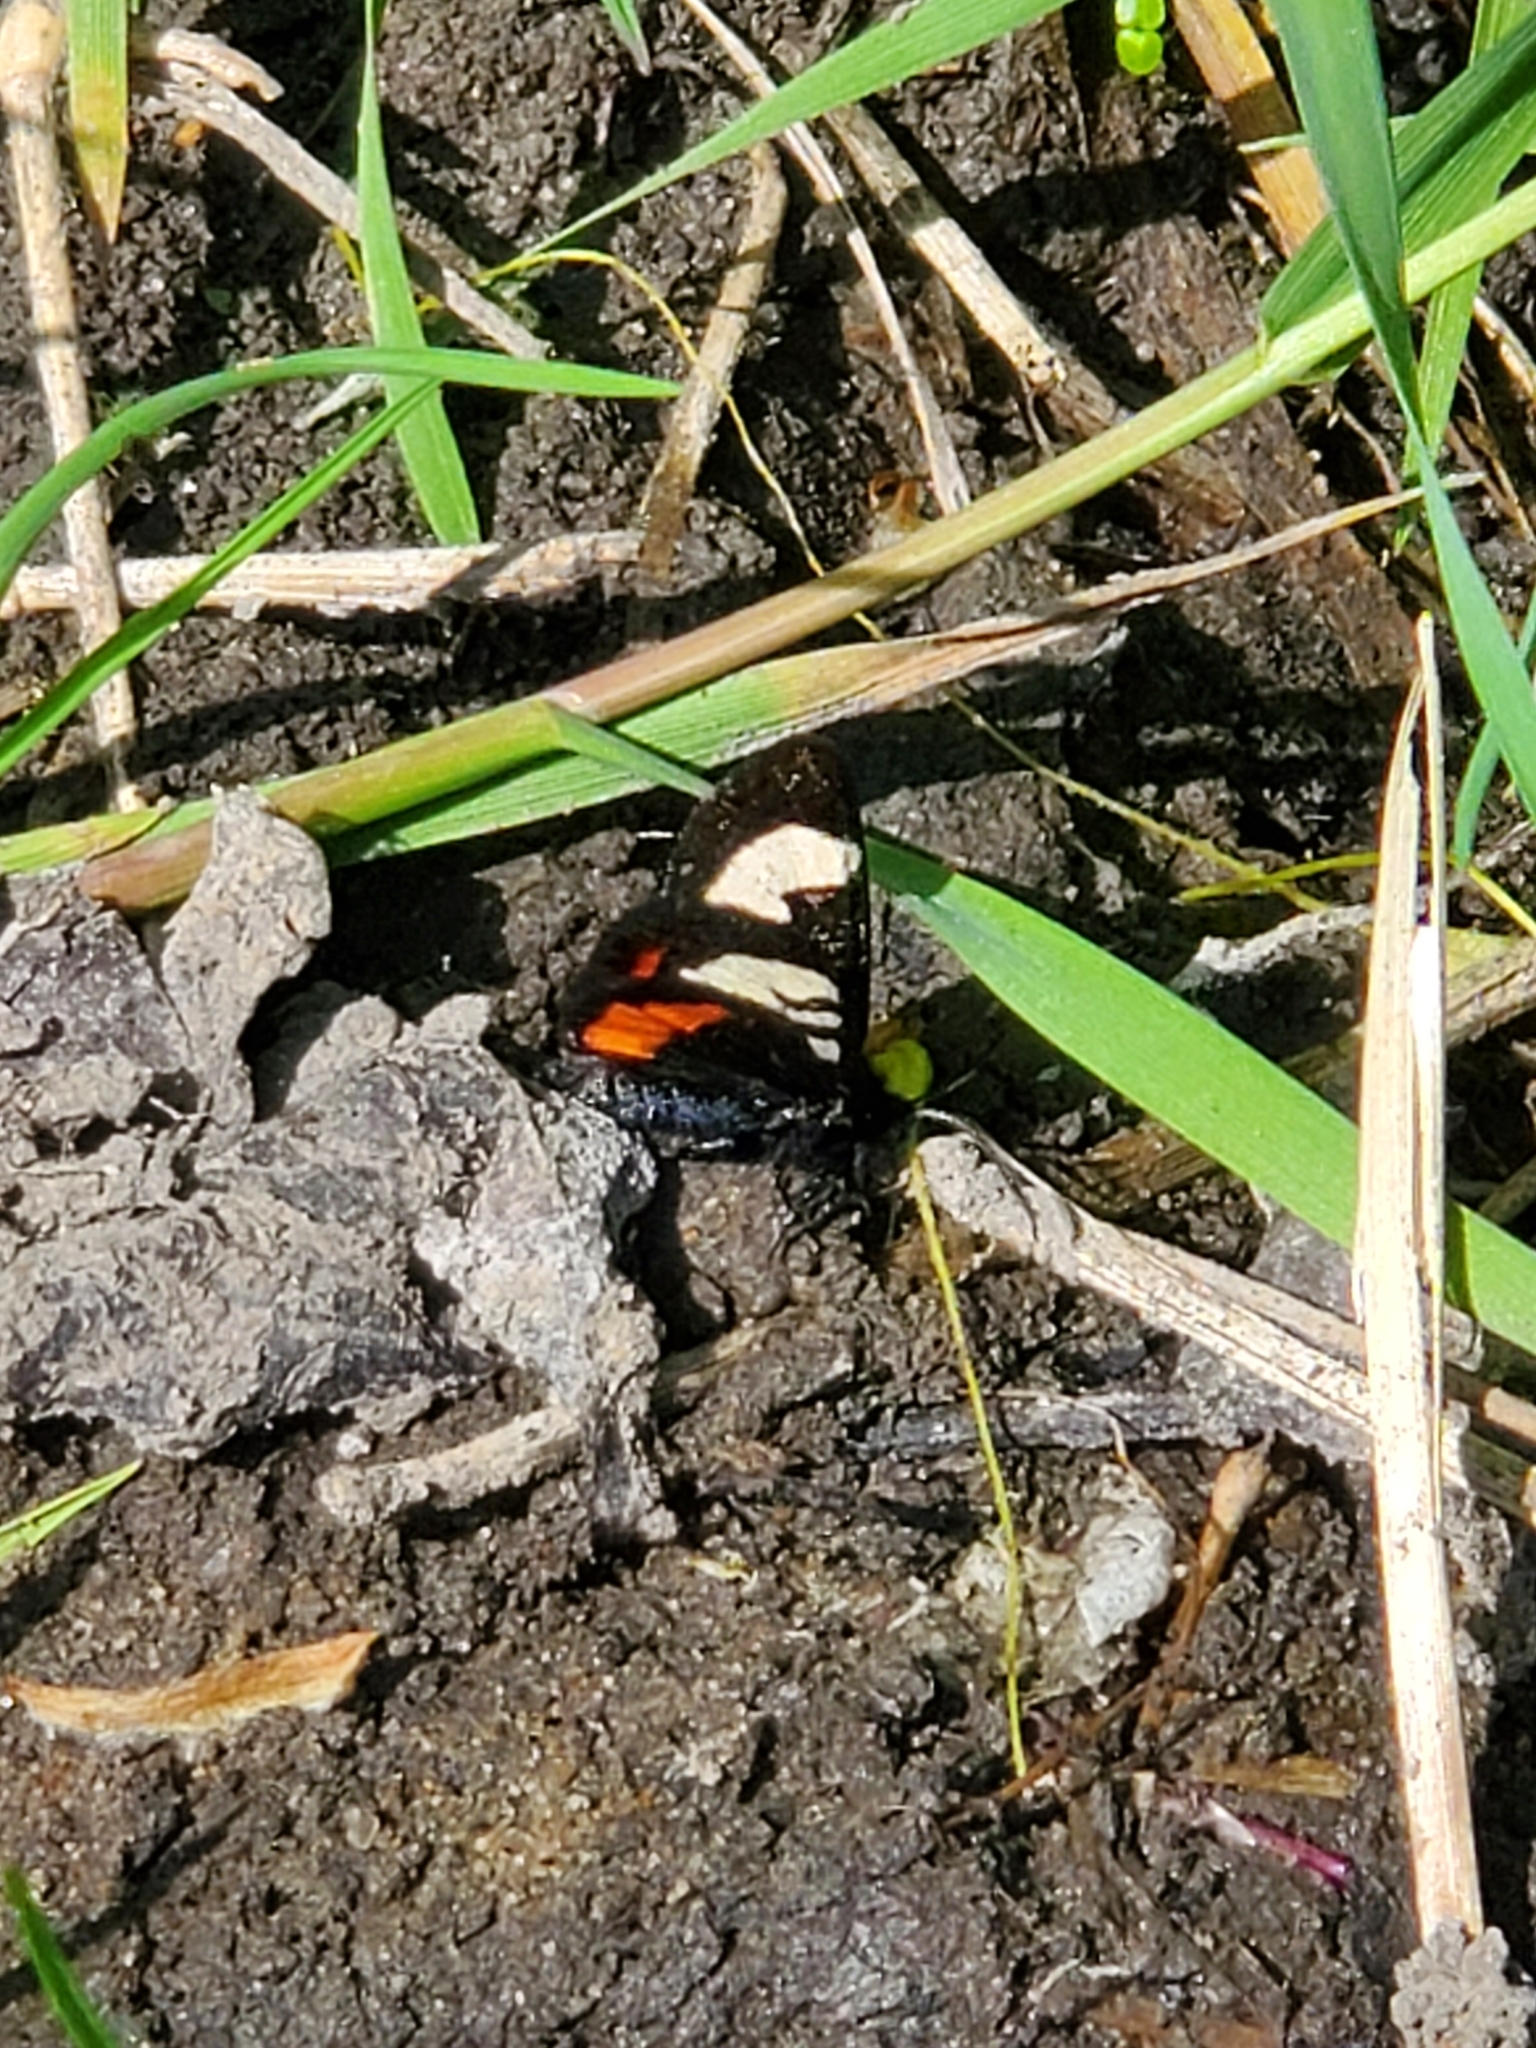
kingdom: Animalia
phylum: Arthropoda
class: Insecta
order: Lepidoptera
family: Noctuidae
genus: Psychomorpha
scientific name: Psychomorpha epimenis
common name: Grapevine epimenis moth
